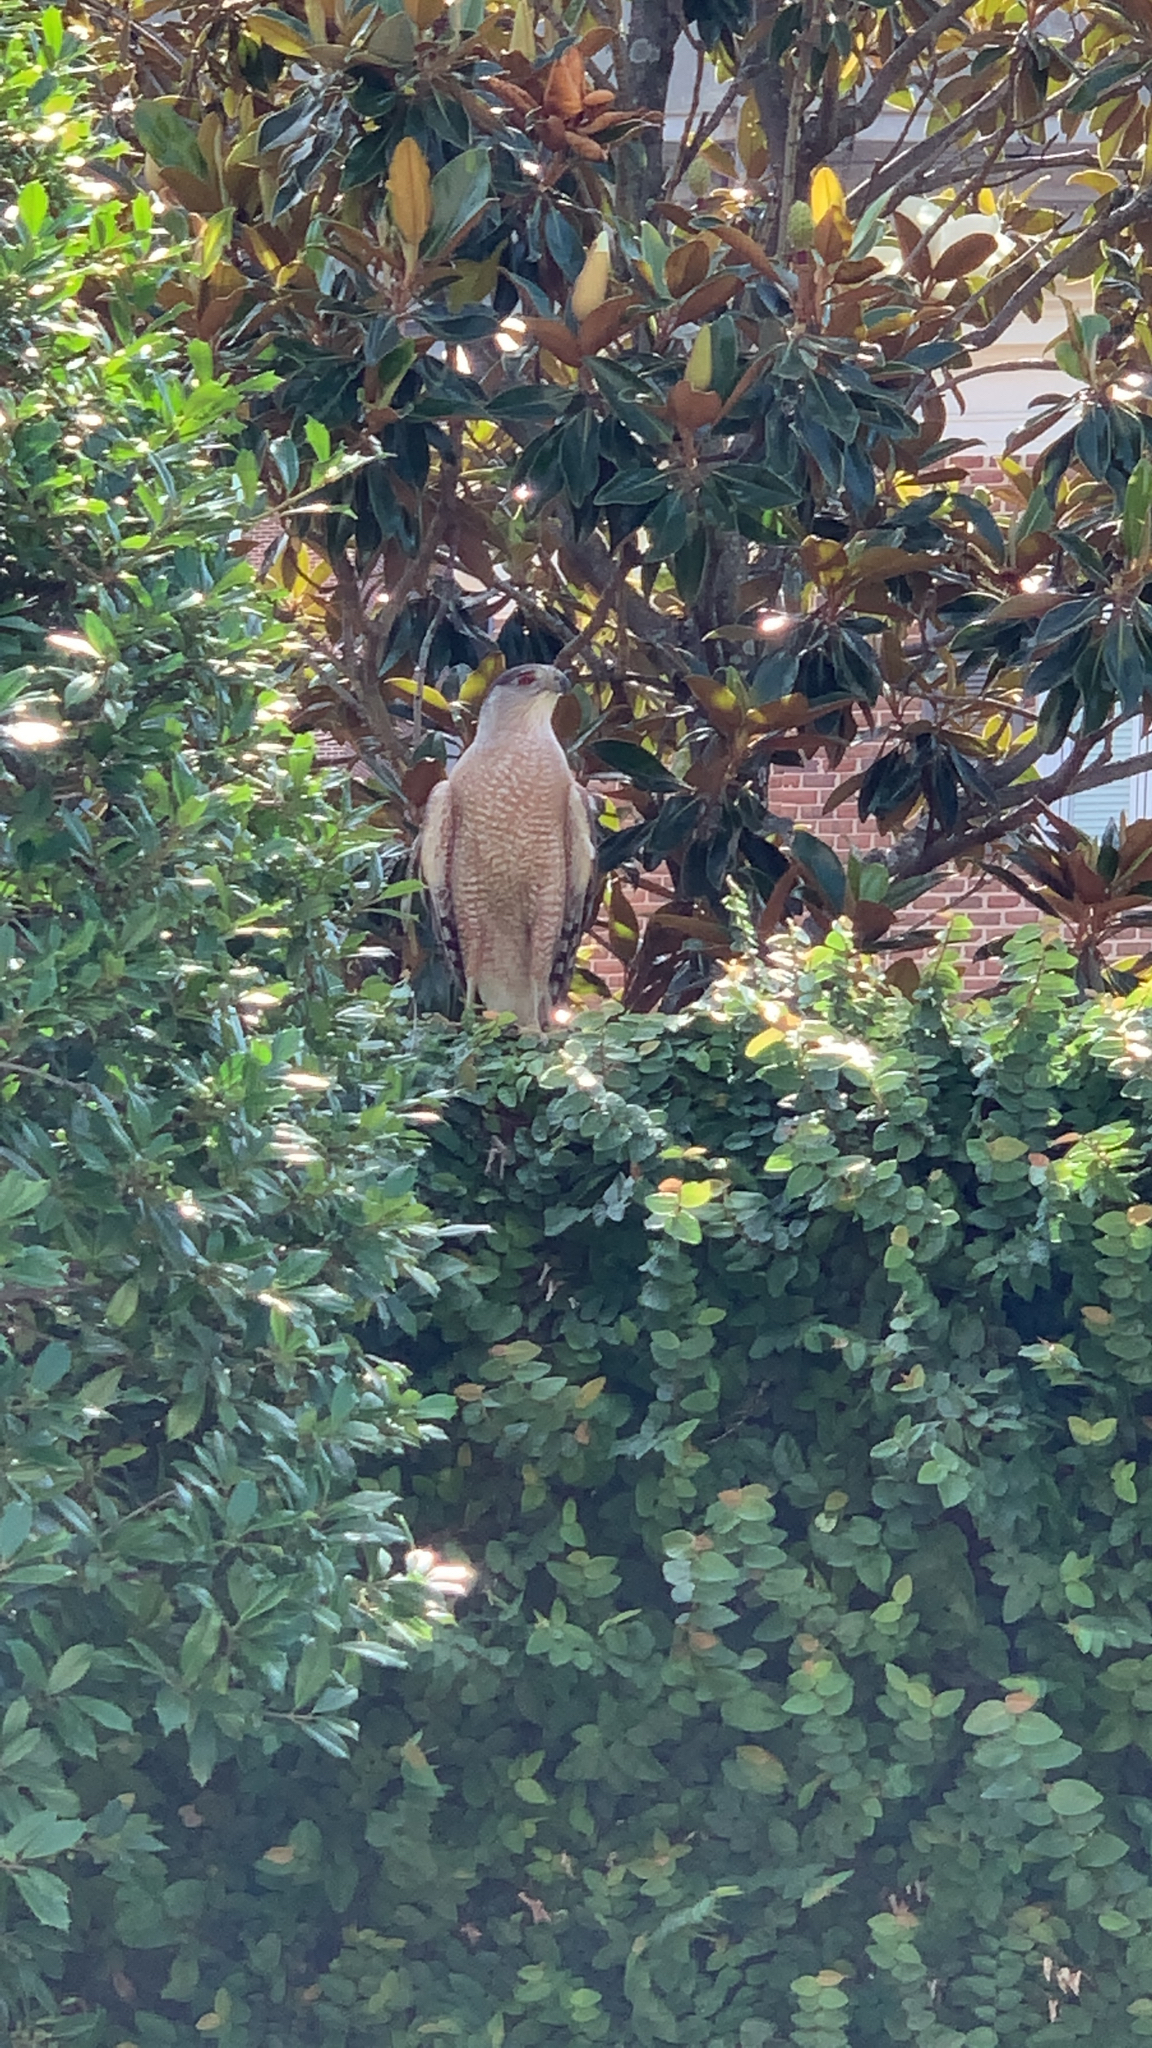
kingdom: Animalia
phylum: Chordata
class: Aves
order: Accipitriformes
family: Accipitridae
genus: Accipiter
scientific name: Accipiter cooperii
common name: Cooper's hawk
